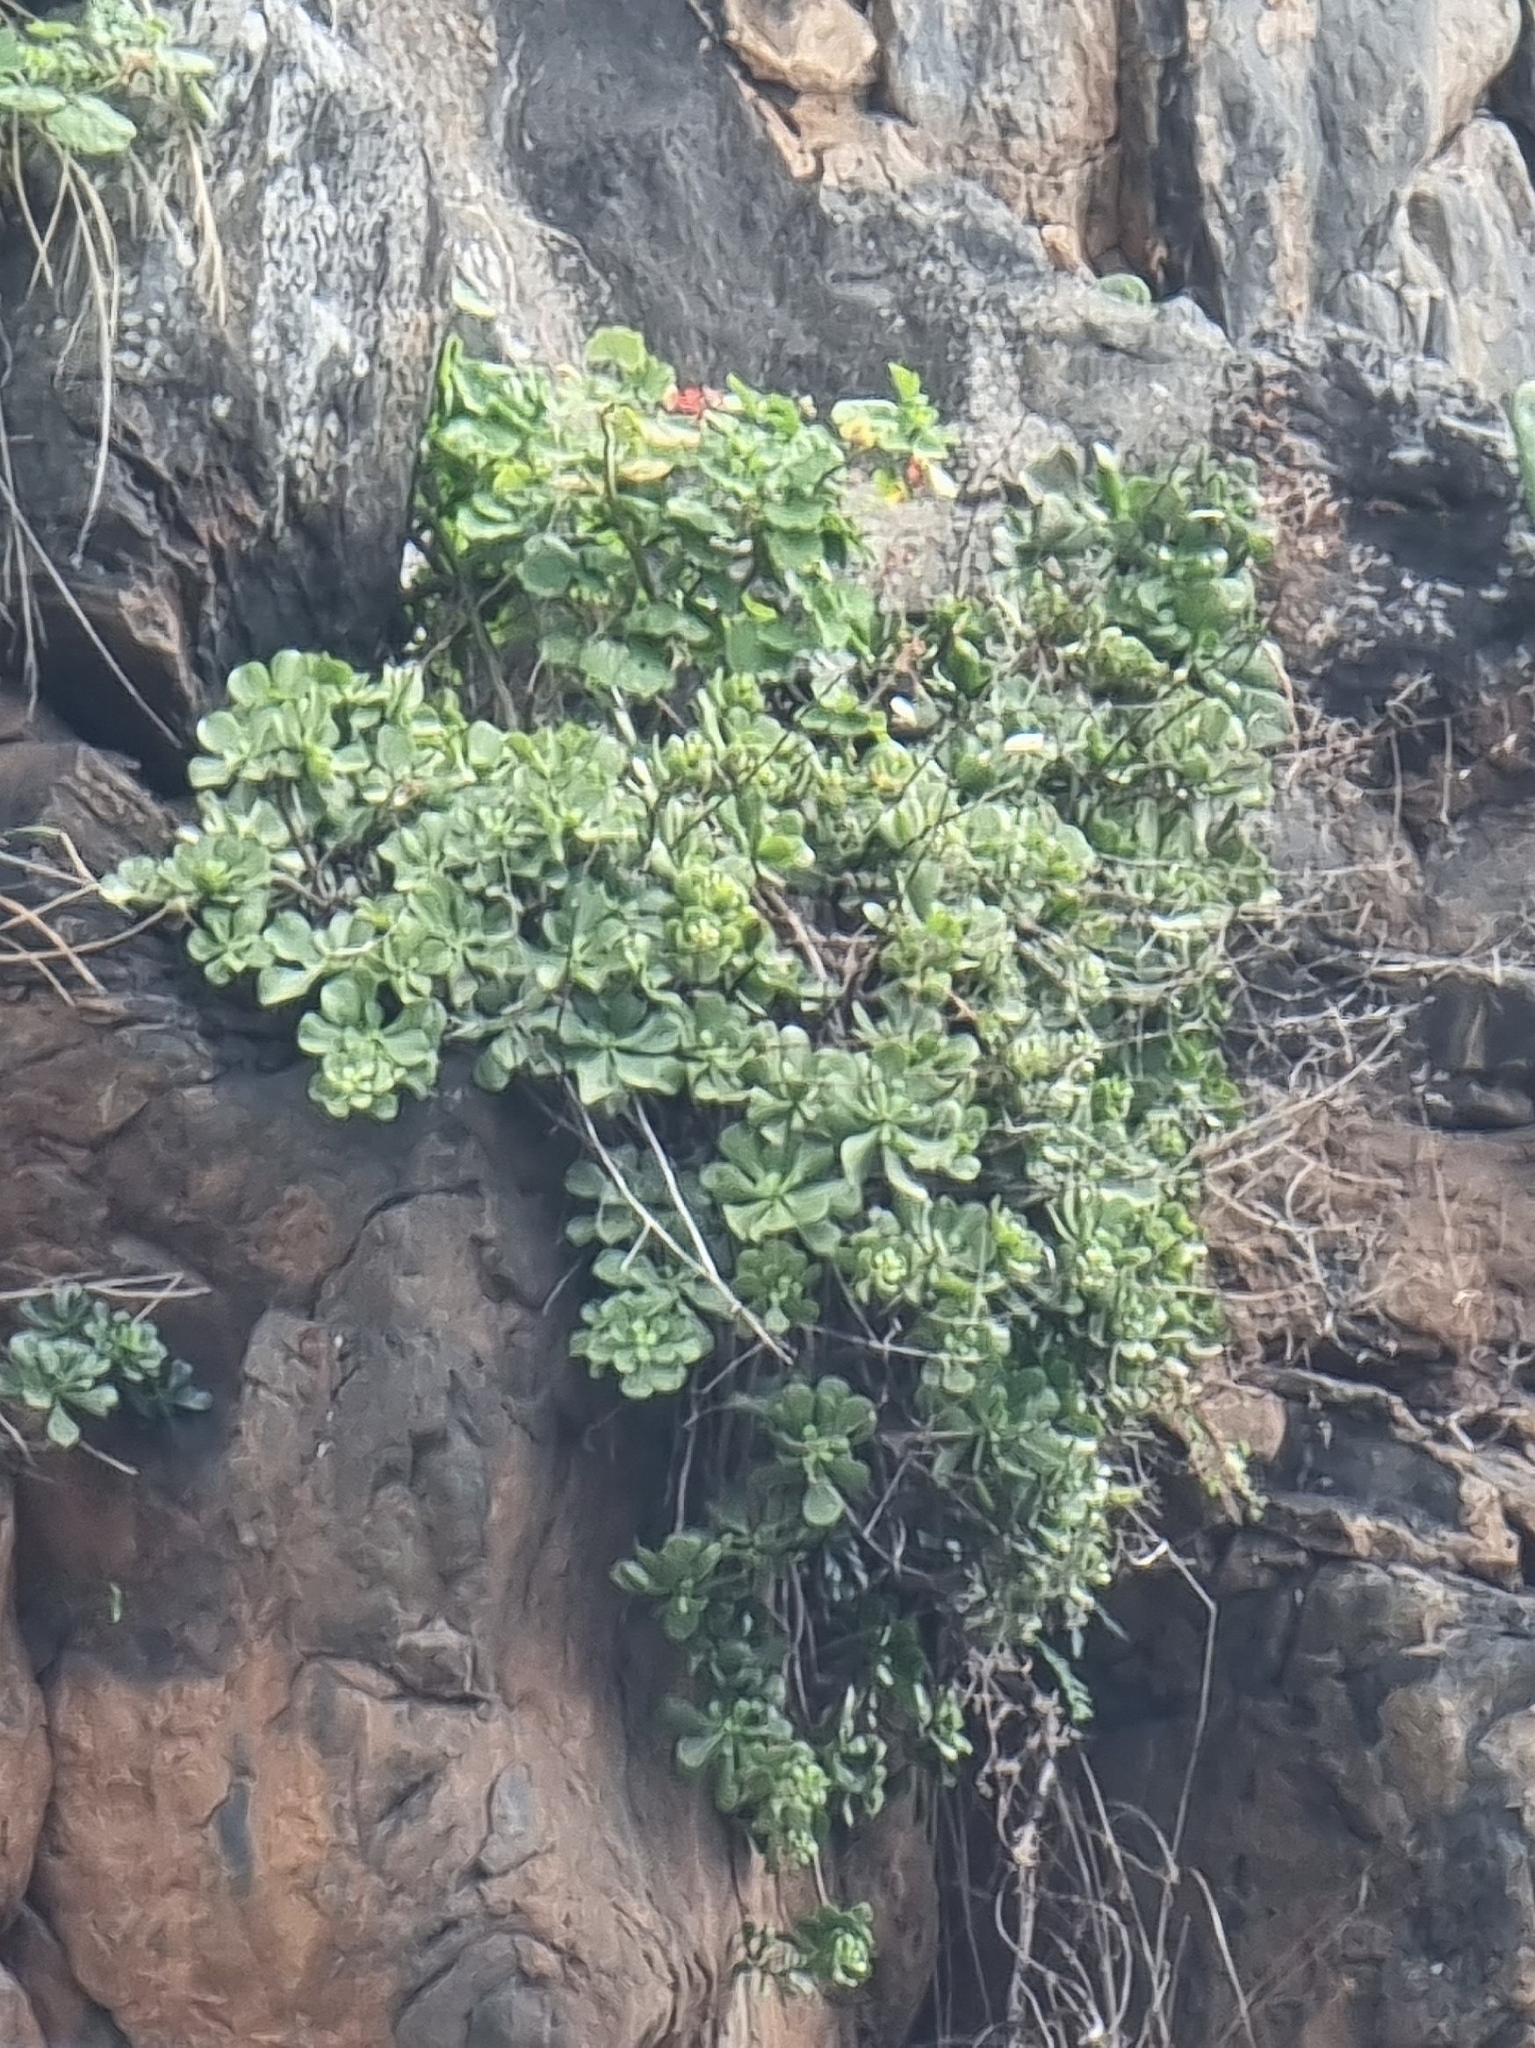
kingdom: Plantae
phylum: Tracheophyta
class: Magnoliopsida
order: Saxifragales
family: Crassulaceae
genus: Aeonium
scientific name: Aeonium glutinosum
